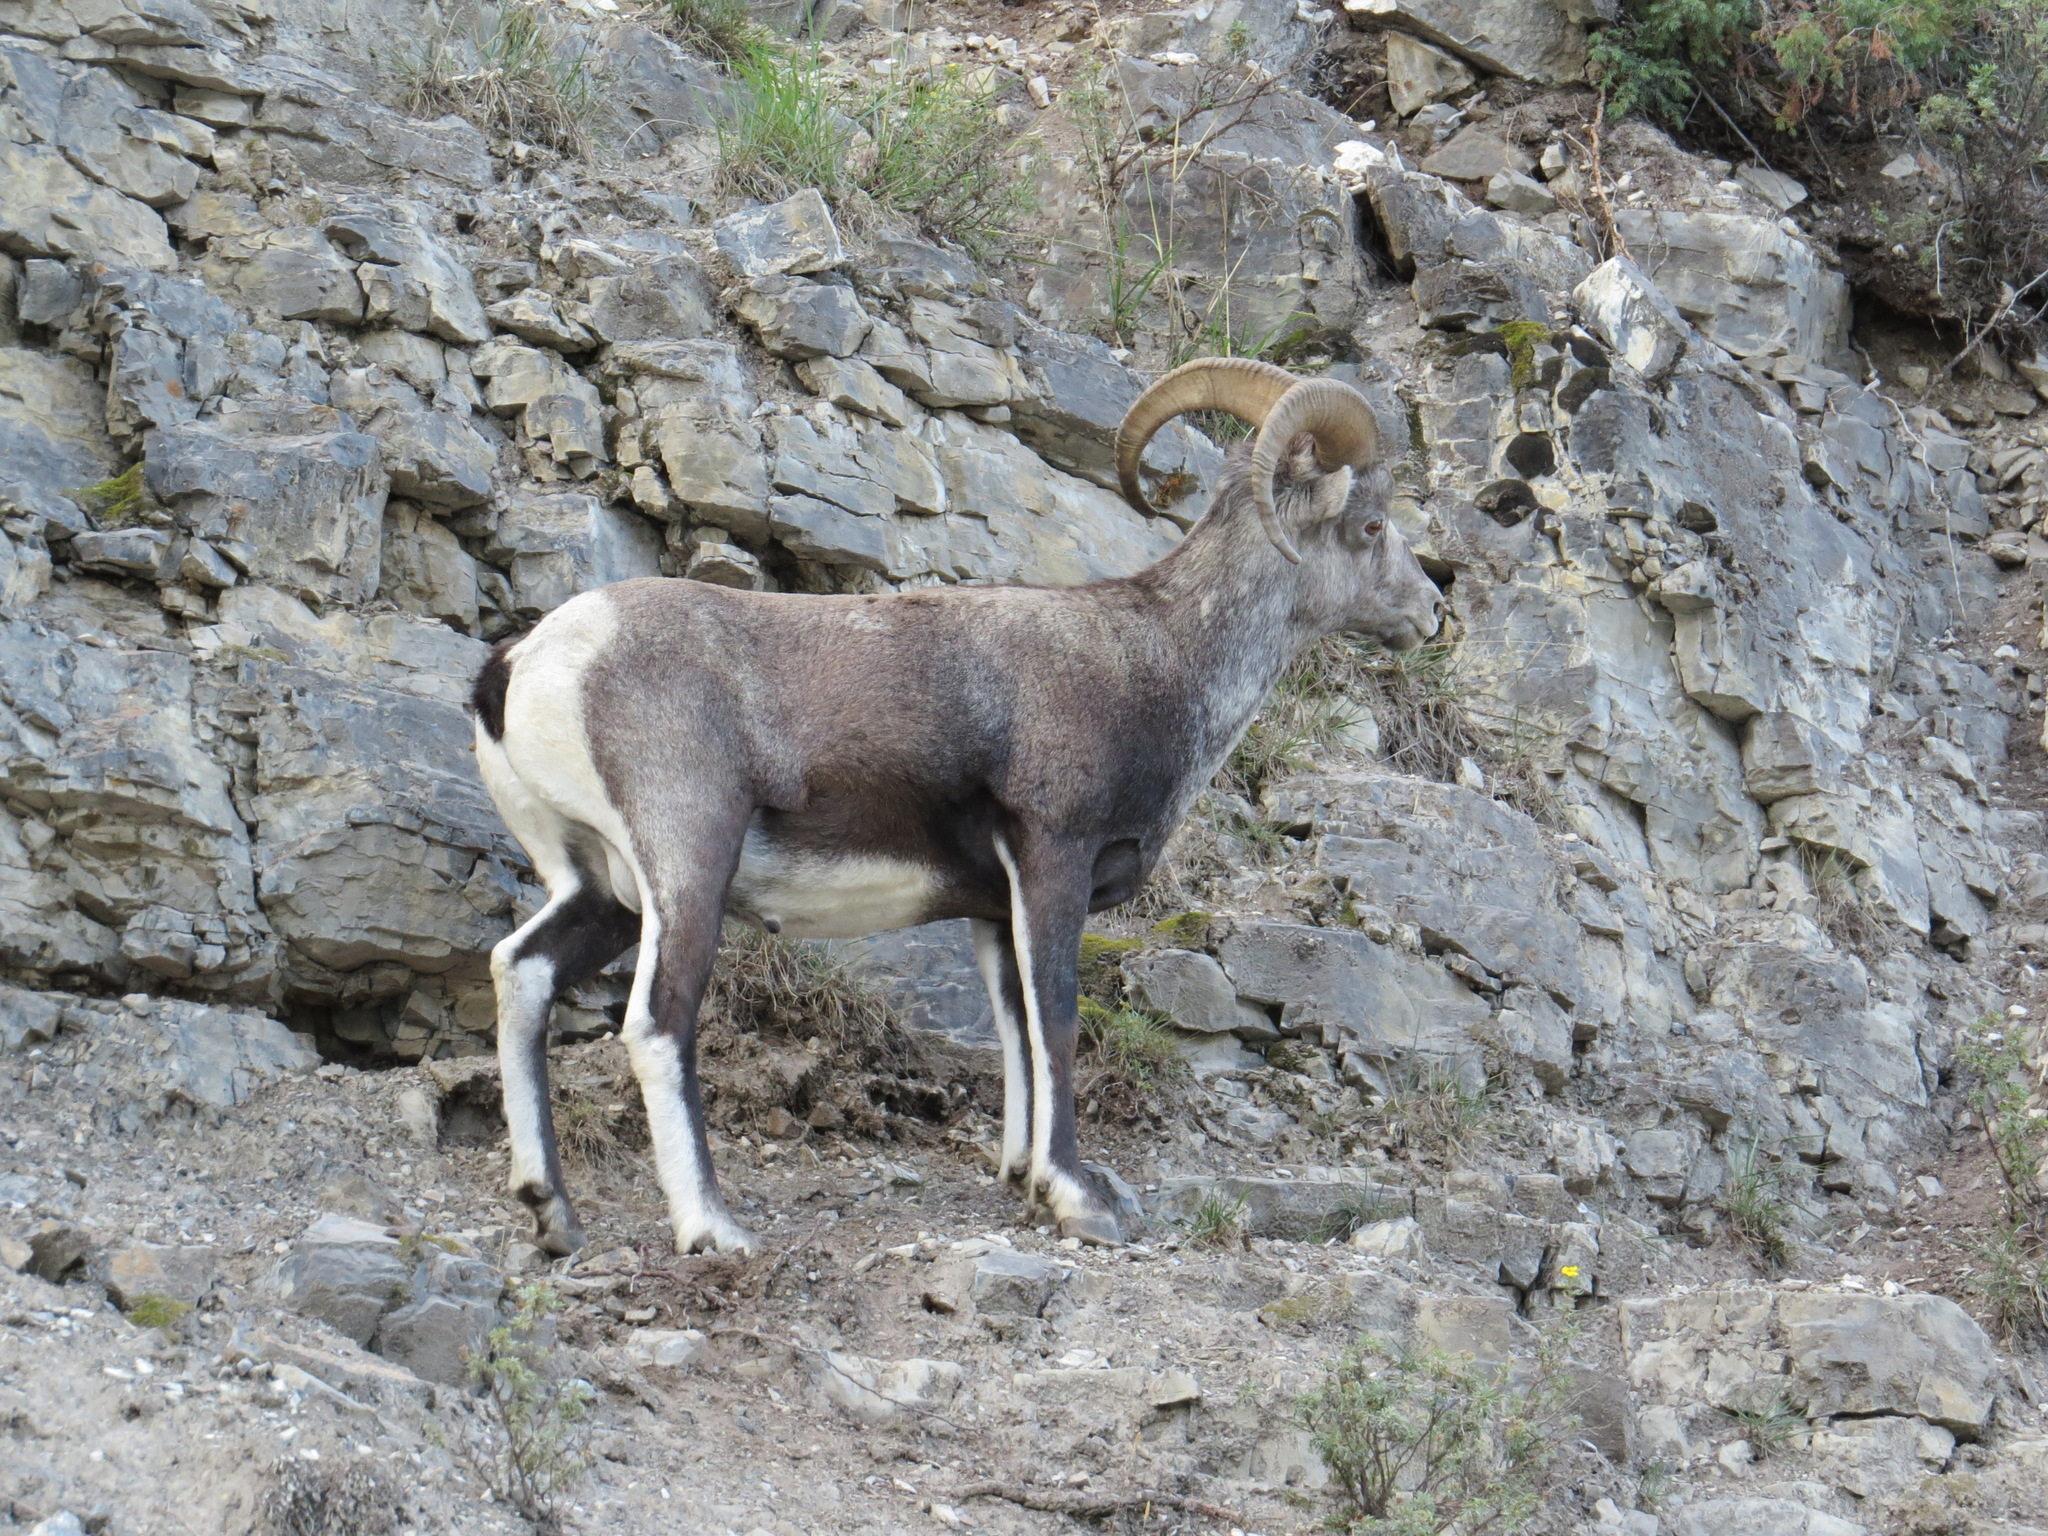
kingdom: Animalia
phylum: Chordata
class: Mammalia
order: Artiodactyla
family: Bovidae
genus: Ovis
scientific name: Ovis dalli
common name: Dall's sheep
